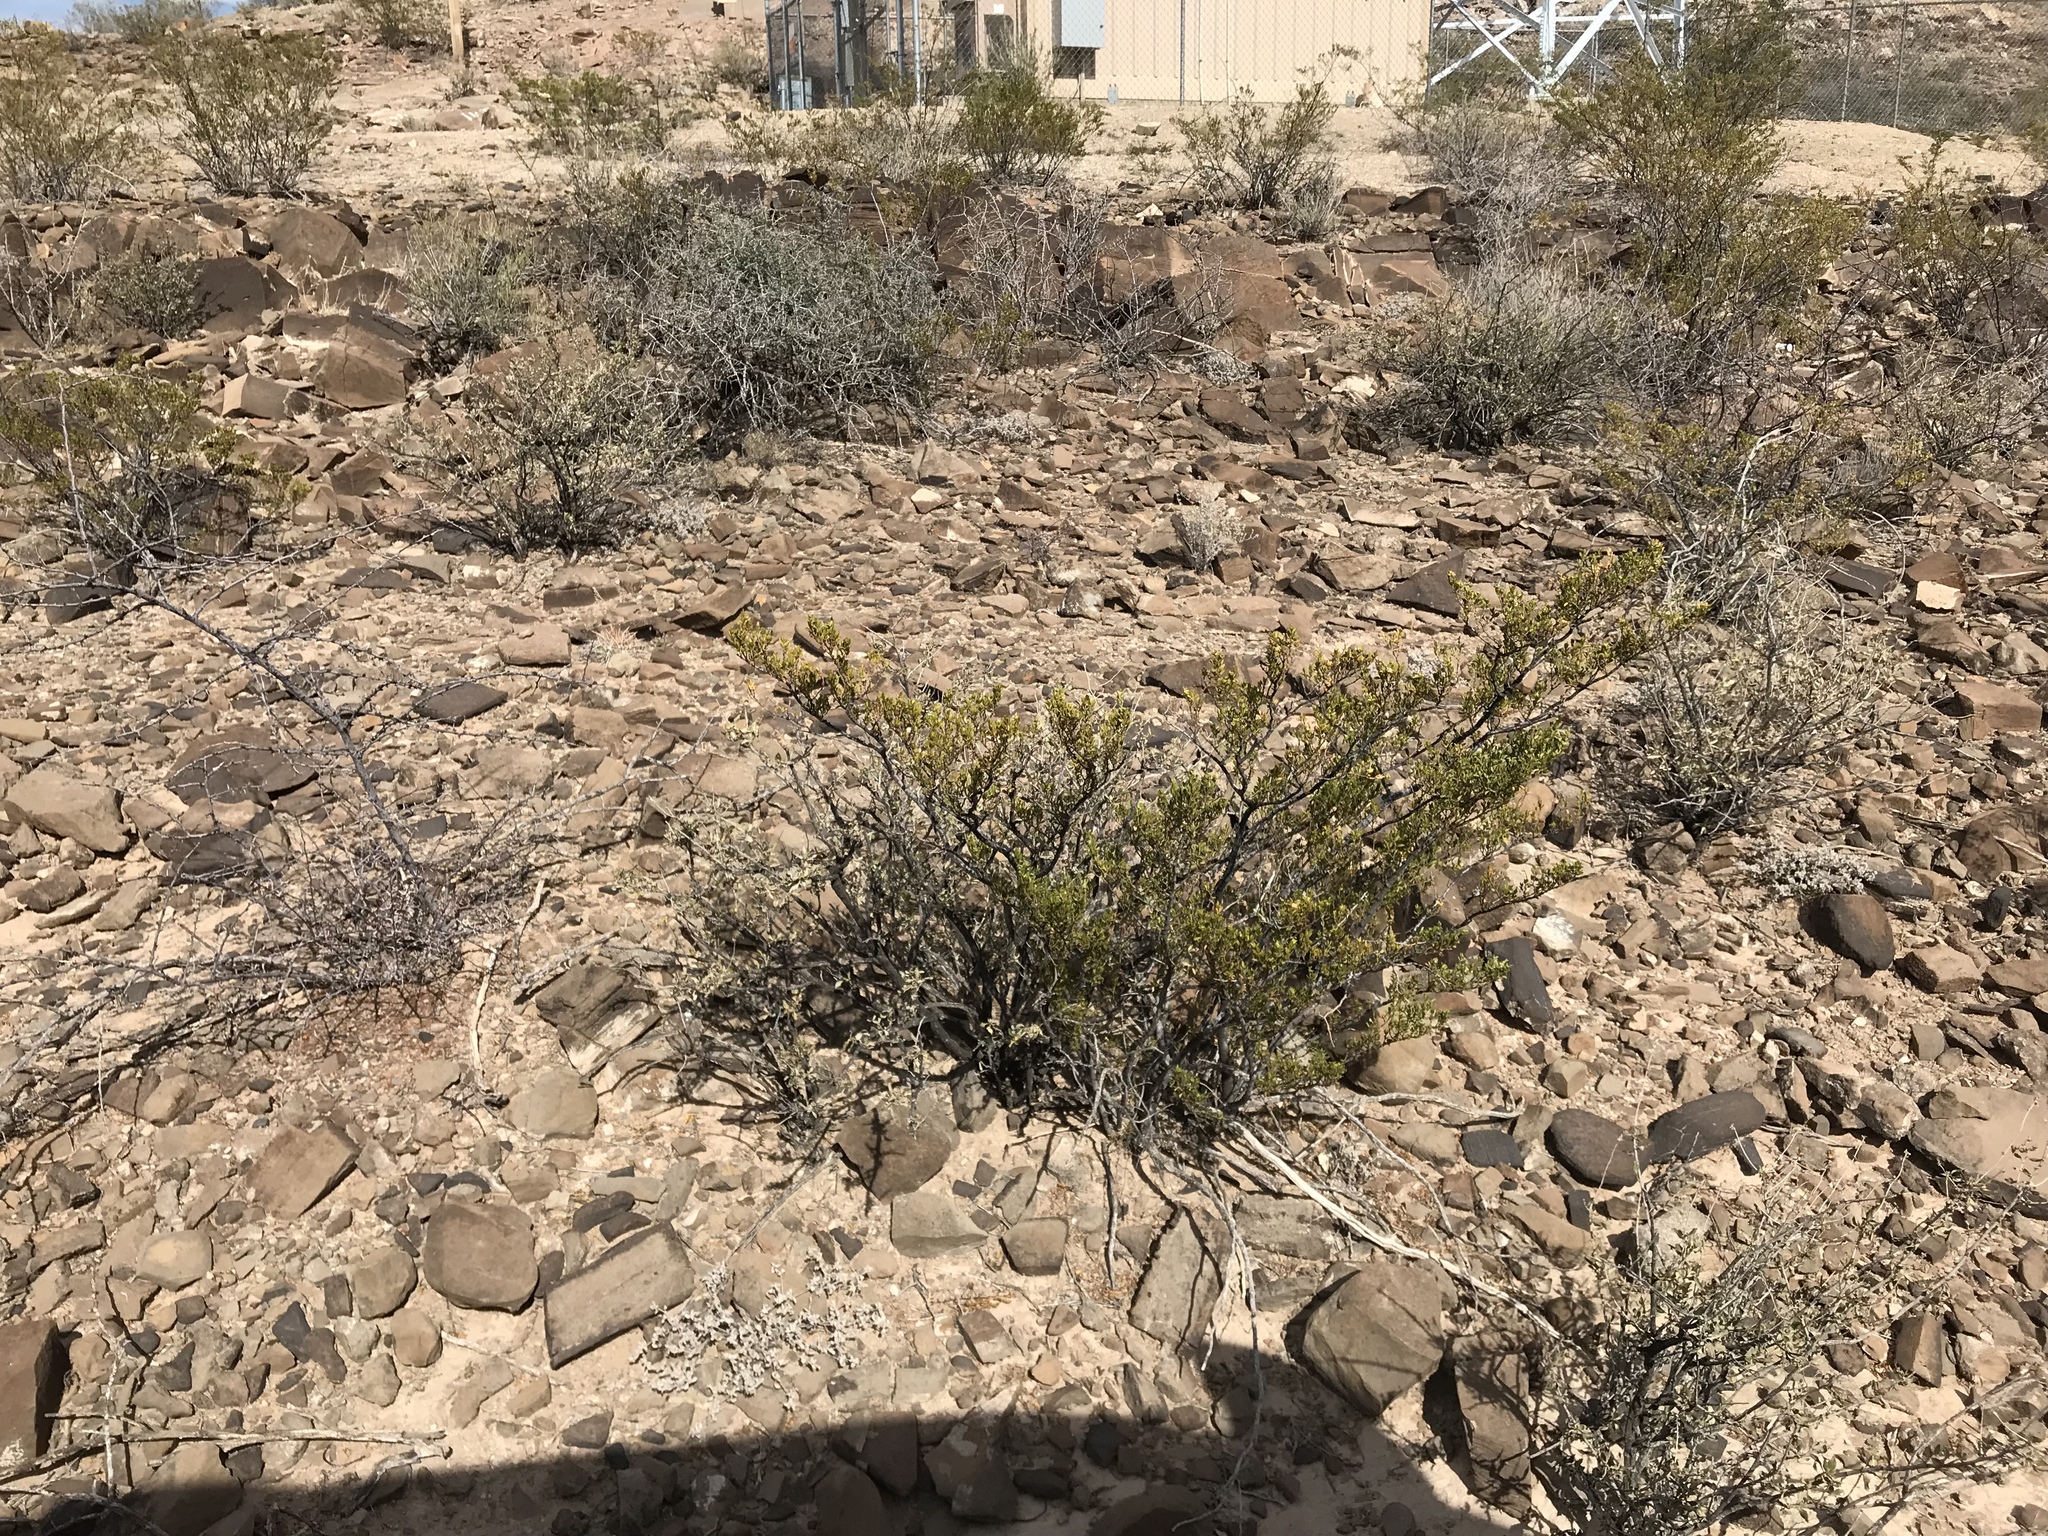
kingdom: Plantae
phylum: Tracheophyta
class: Magnoliopsida
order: Zygophyllales
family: Zygophyllaceae
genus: Larrea
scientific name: Larrea tridentata
